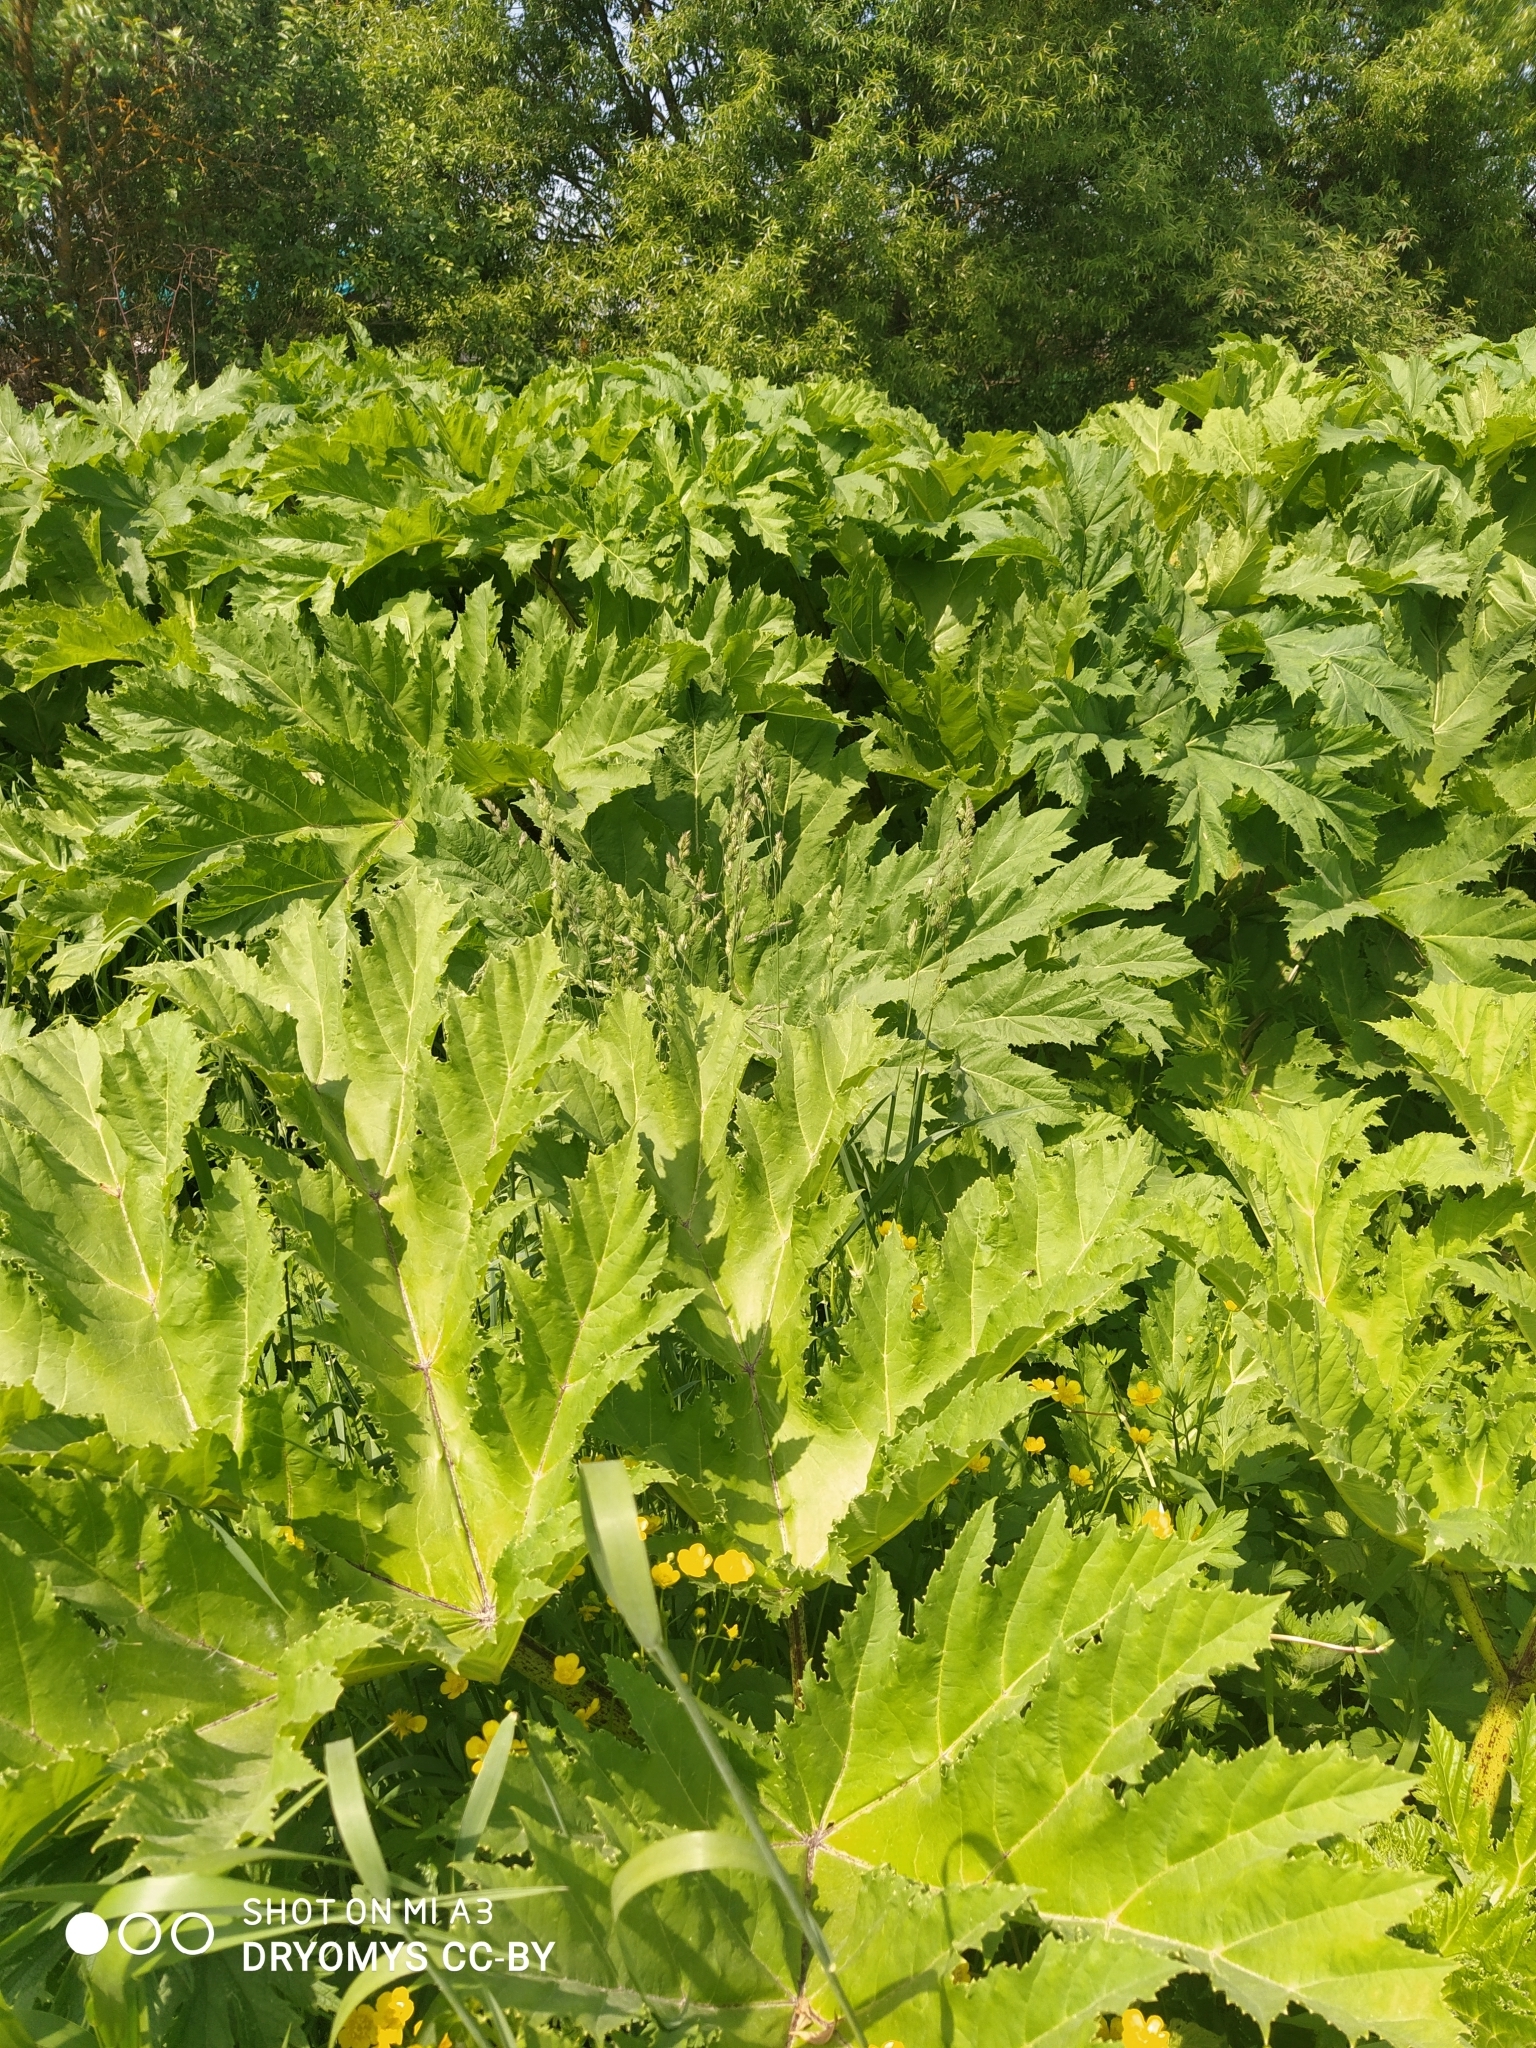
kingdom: Plantae
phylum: Tracheophyta
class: Magnoliopsida
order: Apiales
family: Apiaceae
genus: Heracleum
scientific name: Heracleum sosnowskyi
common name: Sosnowsky's hogweed
